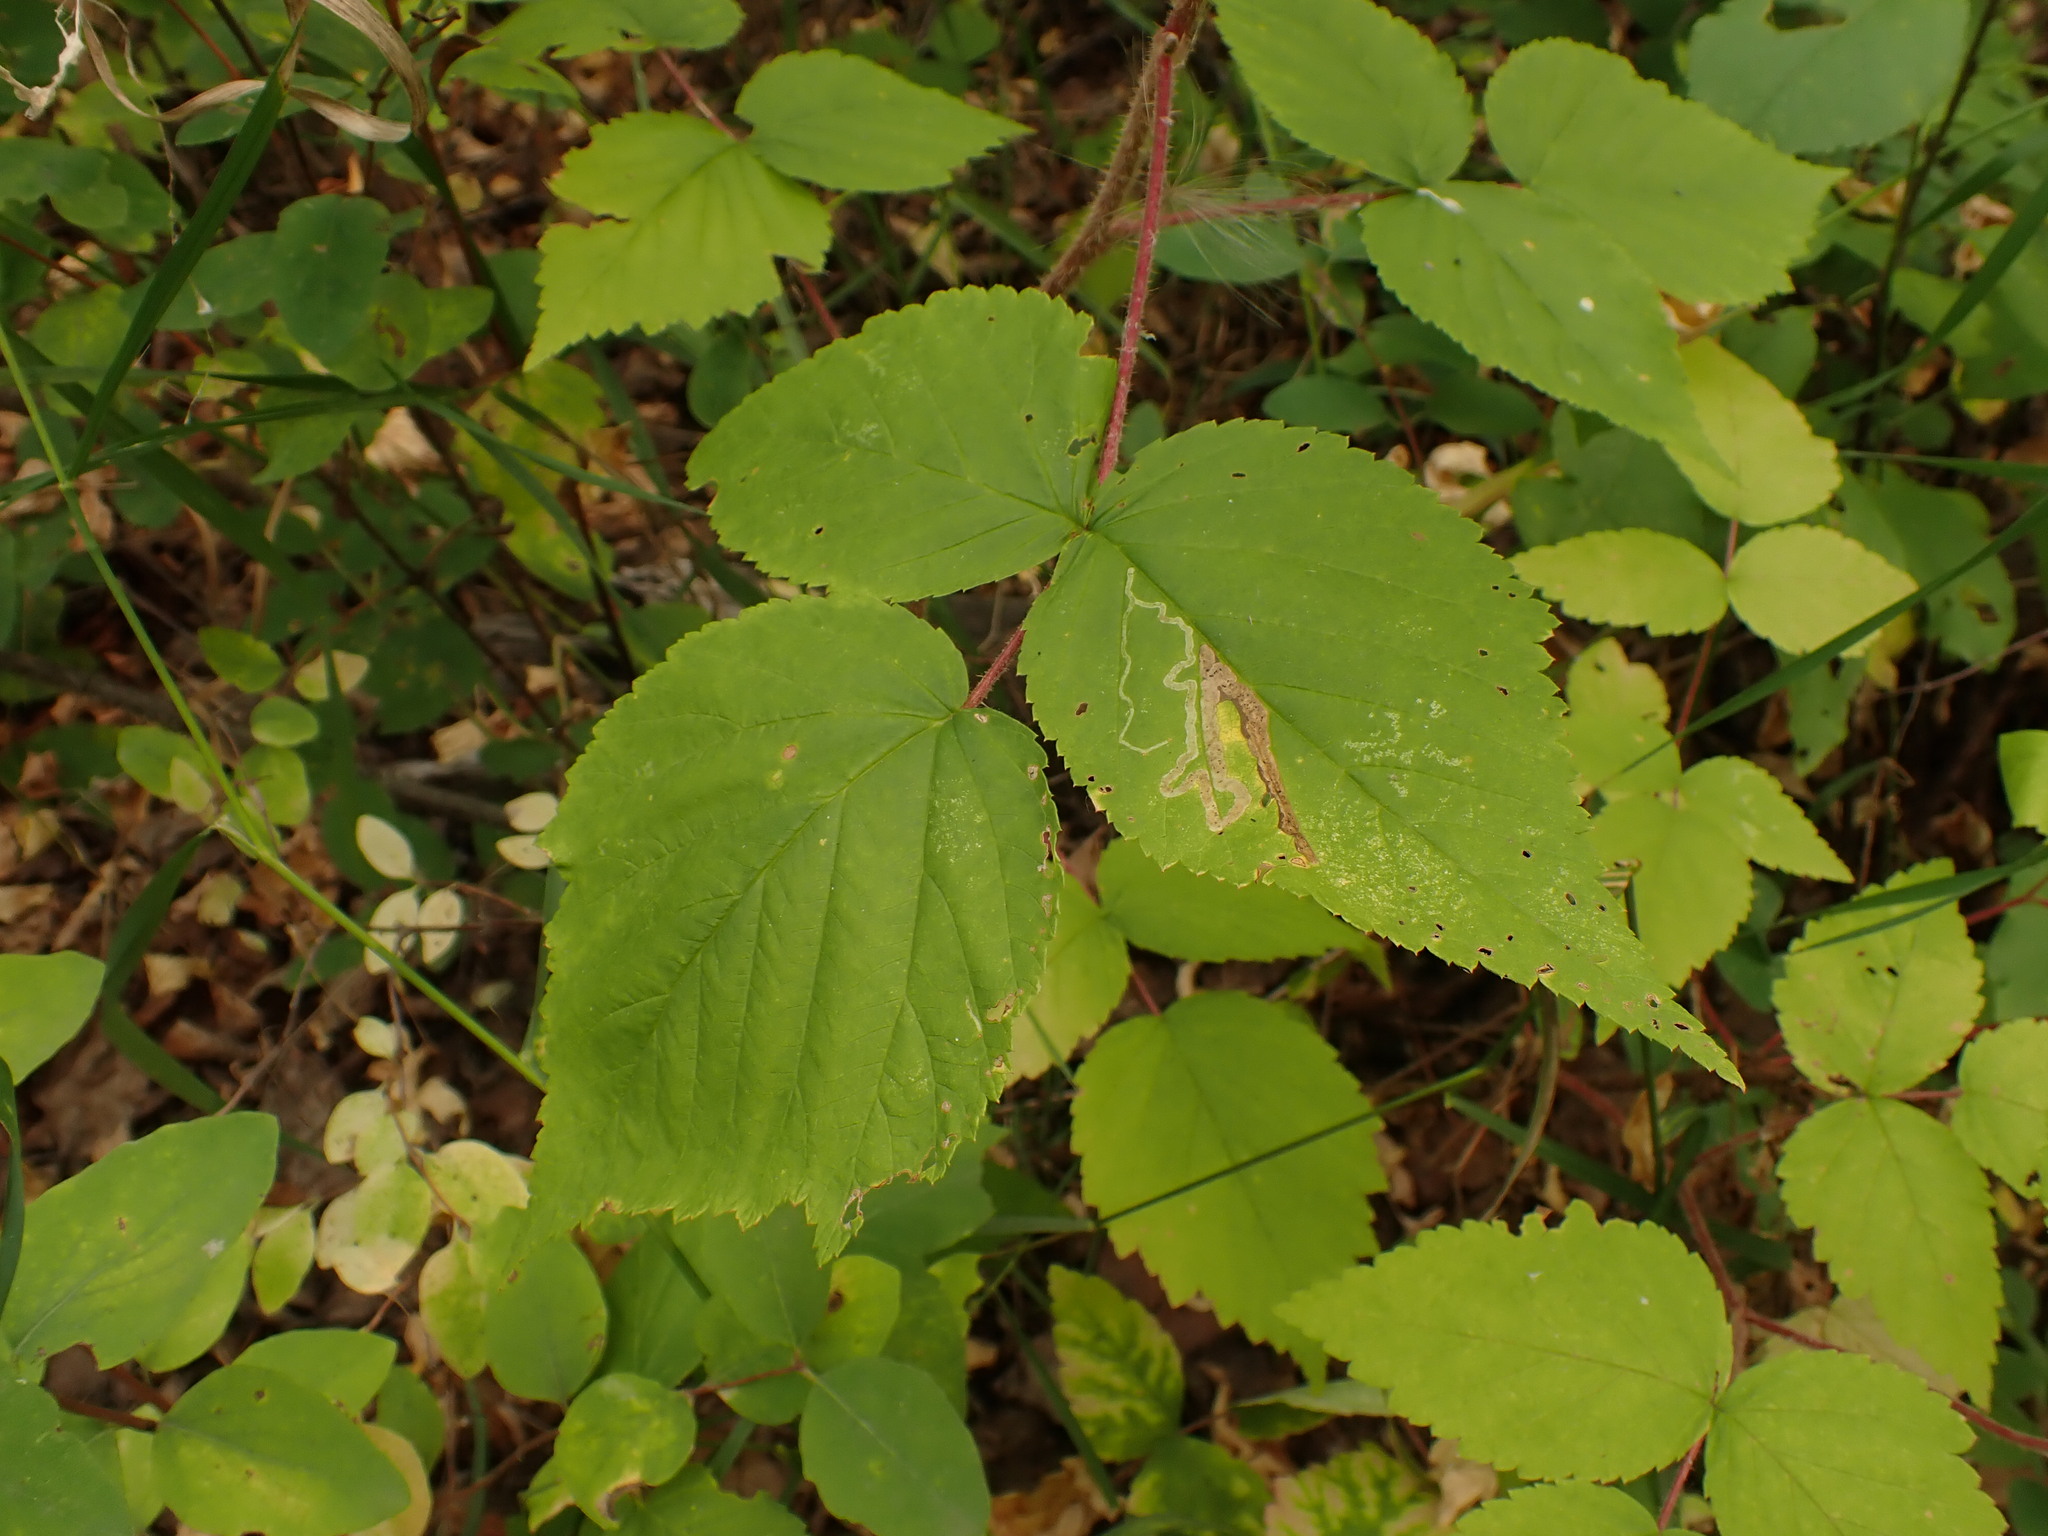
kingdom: Plantae
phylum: Tracheophyta
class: Magnoliopsida
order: Rosales
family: Rosaceae
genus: Rubus
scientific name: Rubus idaeus
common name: Raspberry
